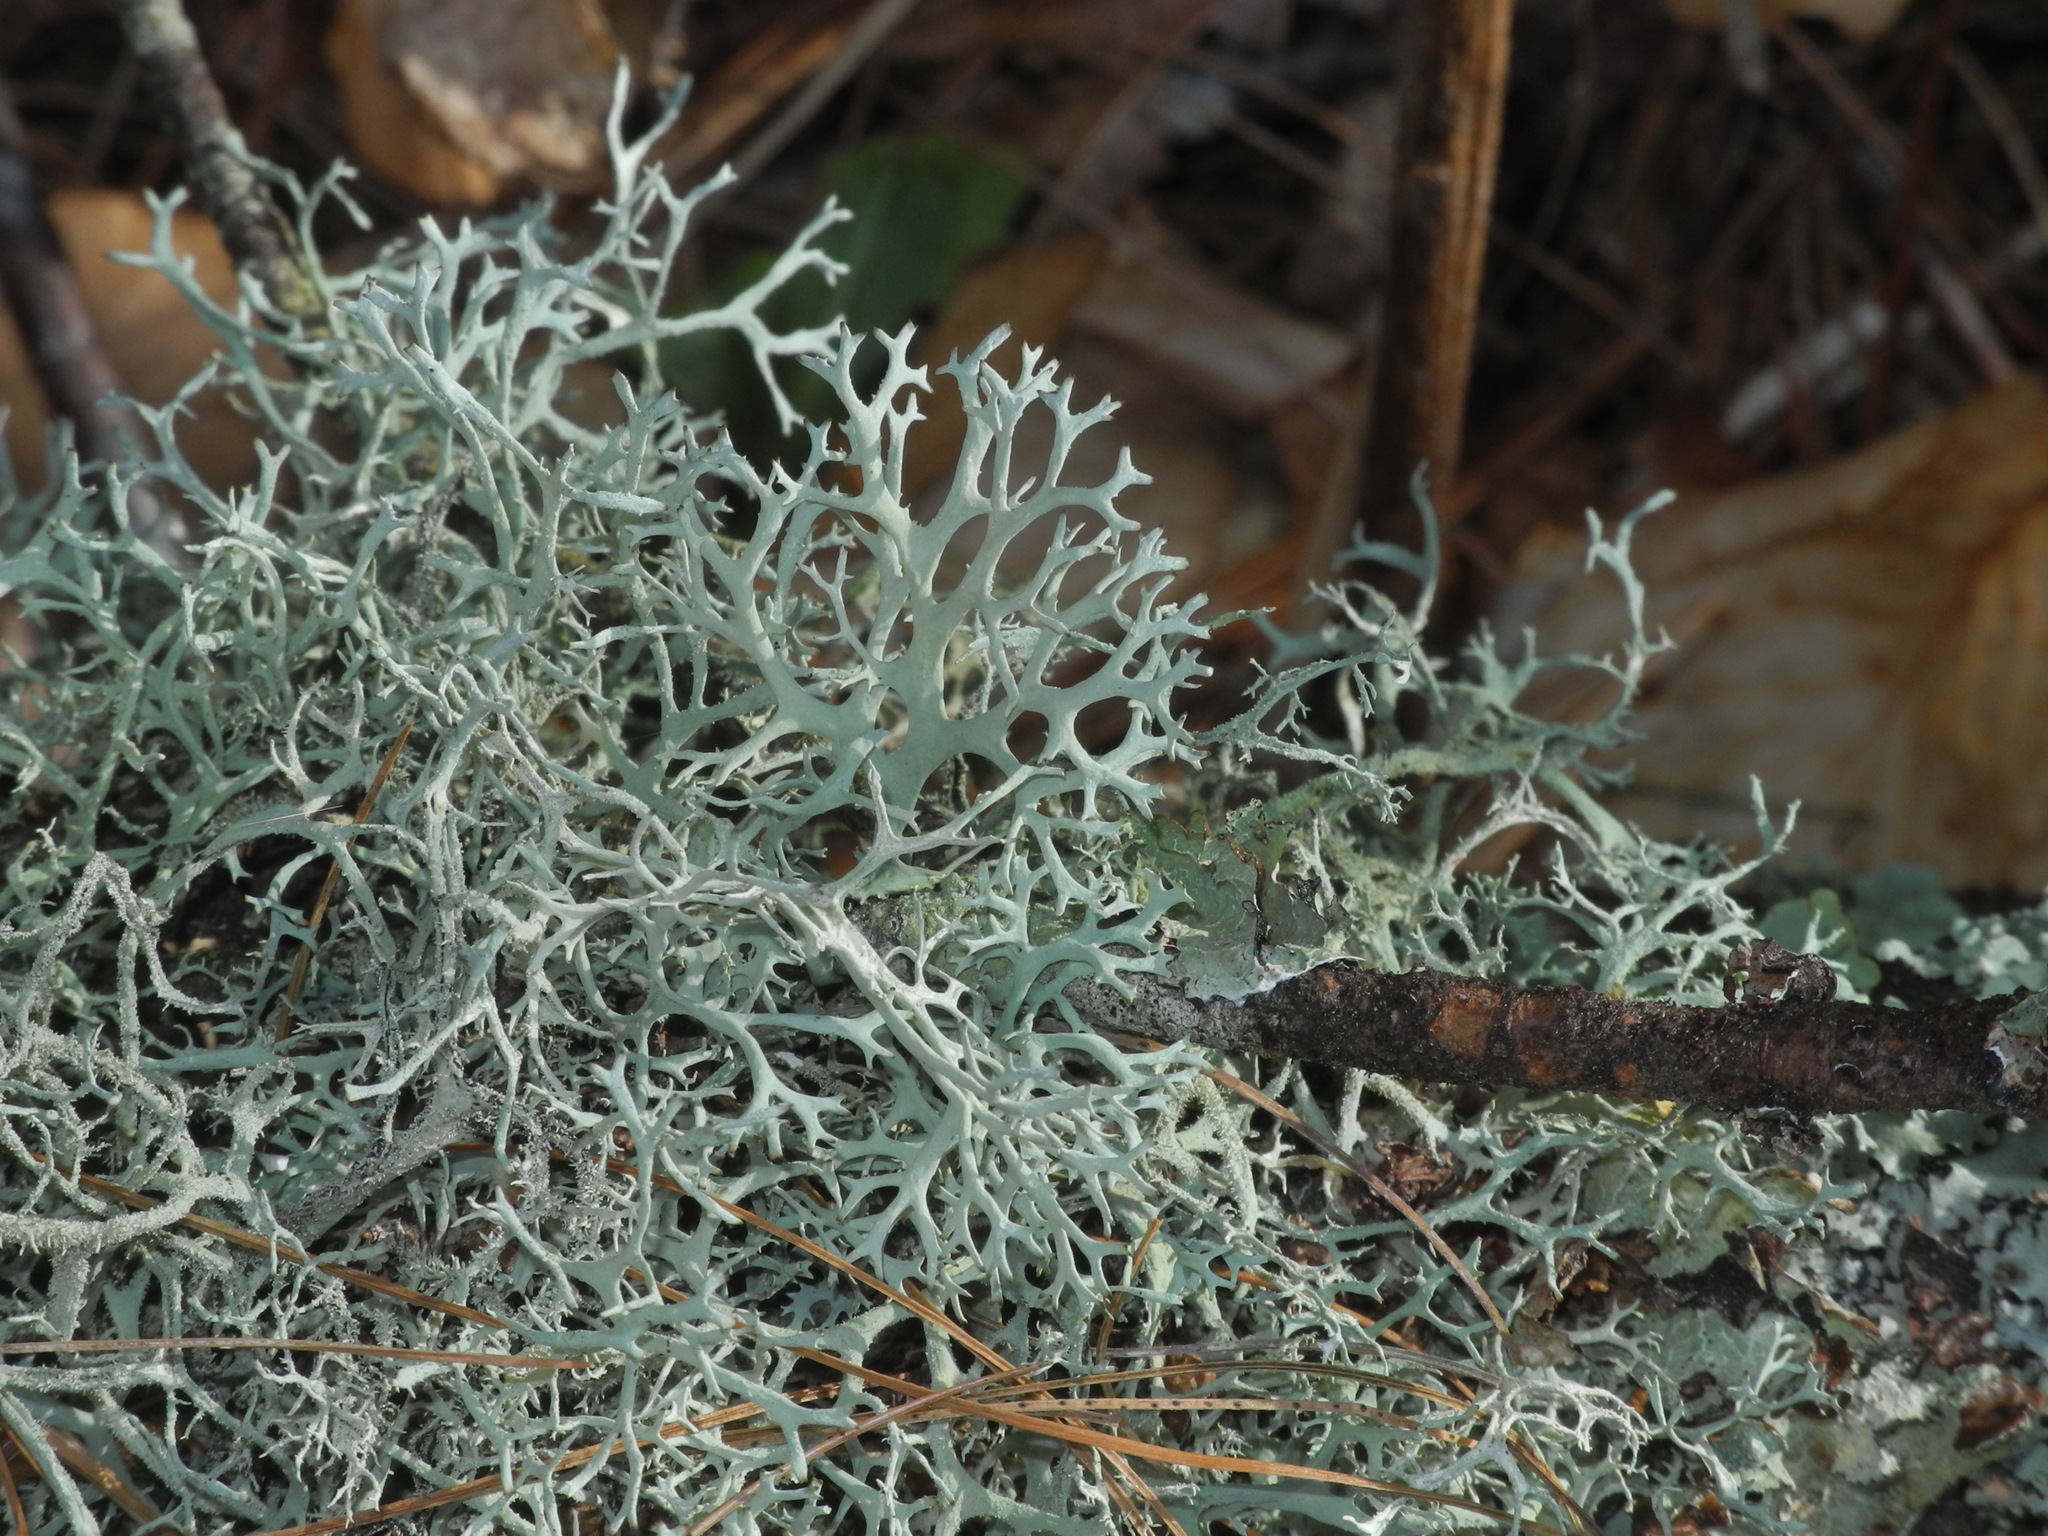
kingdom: Fungi
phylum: Ascomycota
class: Lecanoromycetes
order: Lecanorales
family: Parmeliaceae
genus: Pseudevernia
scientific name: Pseudevernia consocians
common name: Common antler lichen
